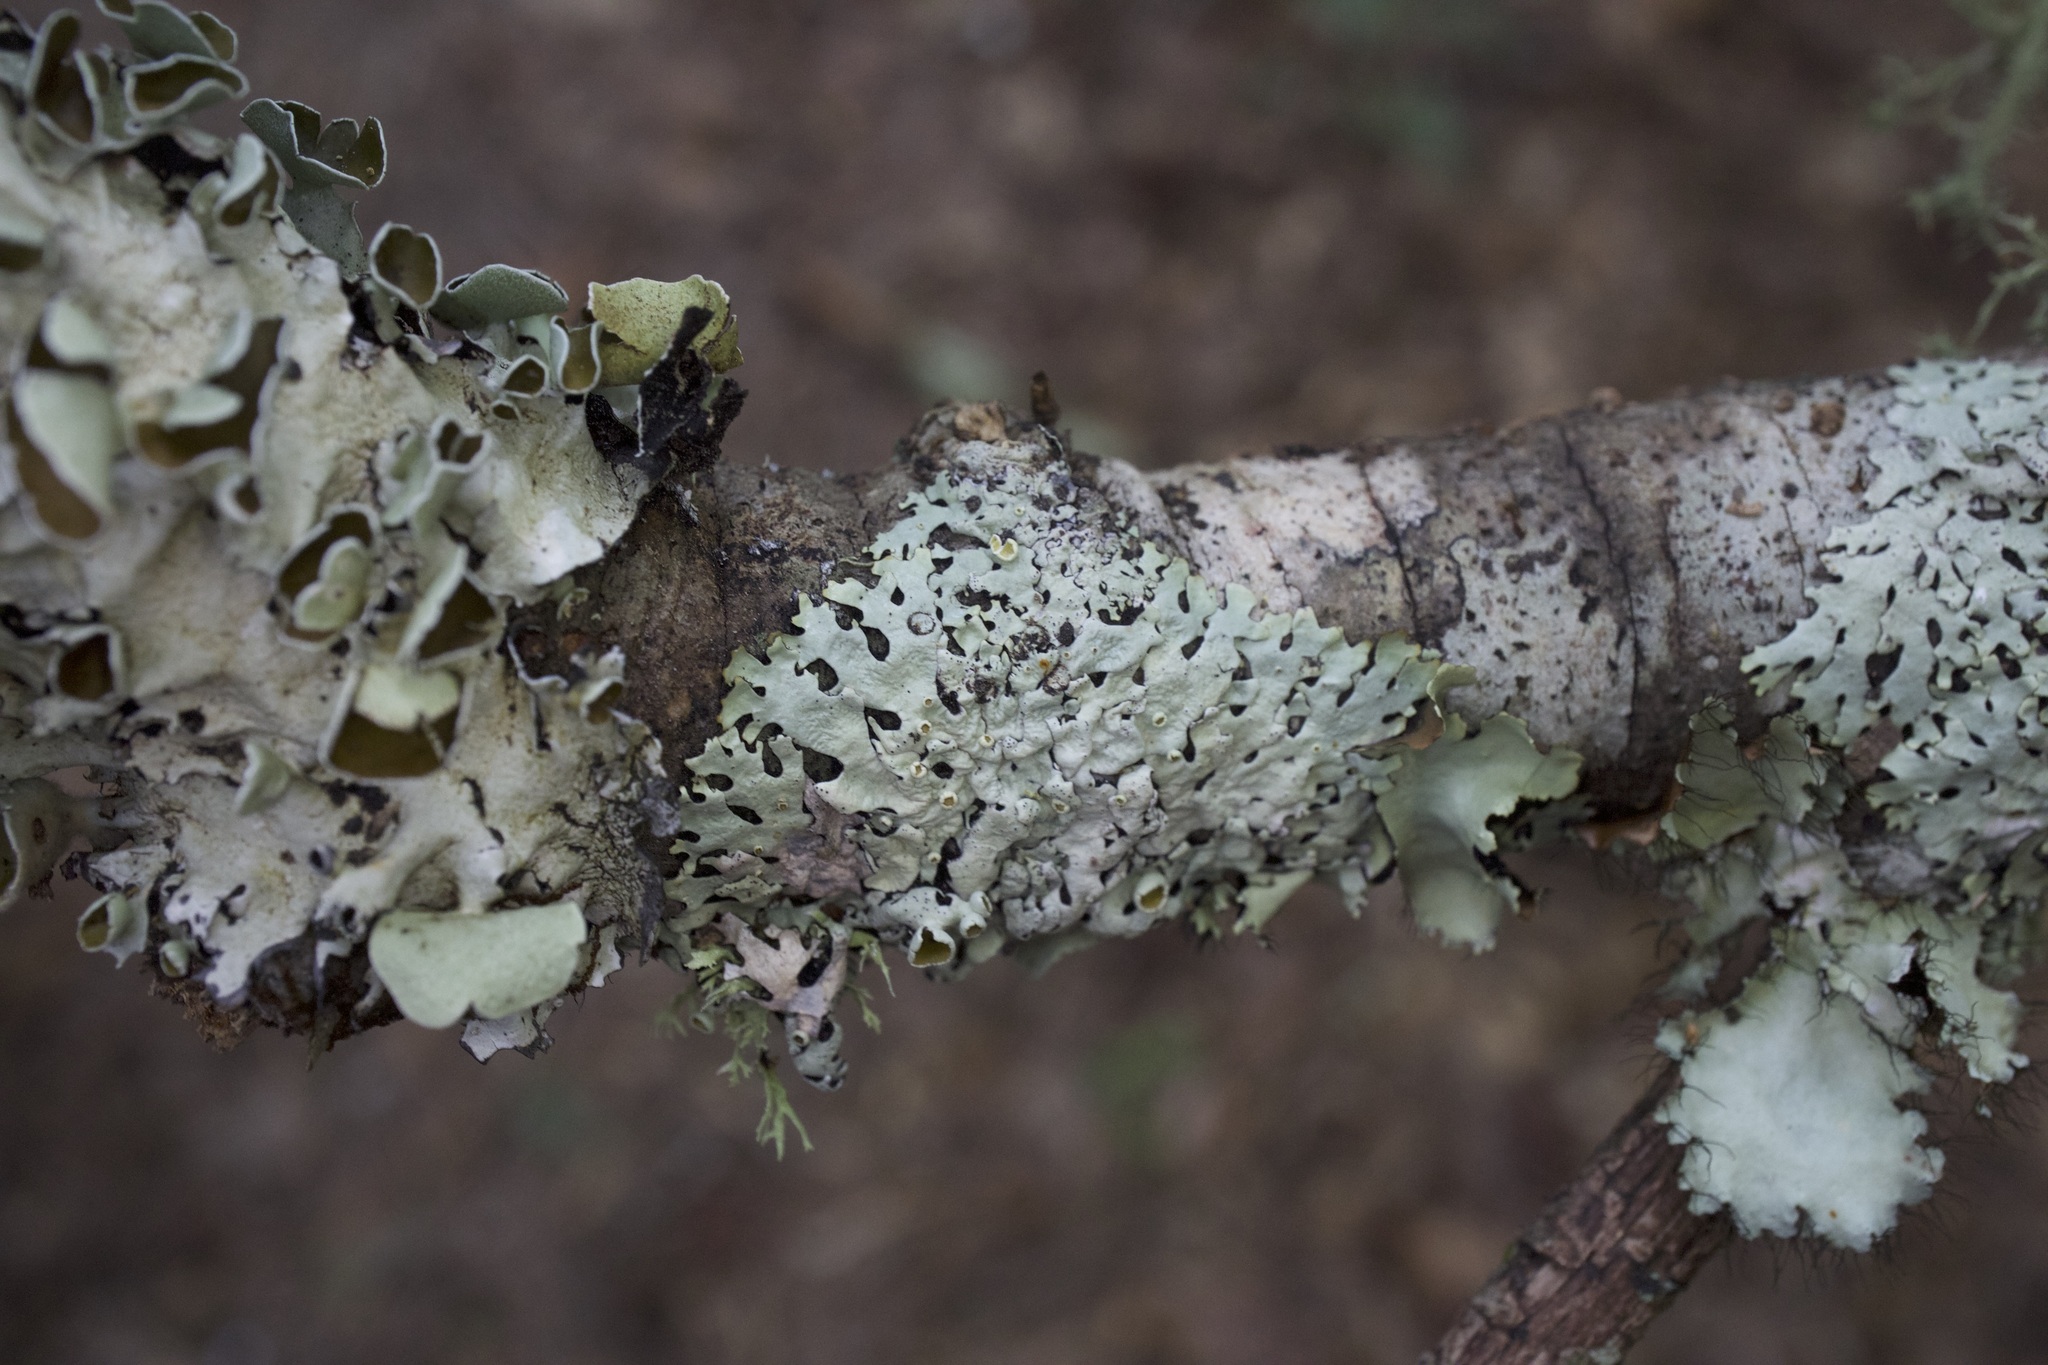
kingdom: Fungi
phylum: Ascomycota
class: Lecanoromycetes
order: Lecanorales
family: Parmeliaceae
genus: Hypotrachyna
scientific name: Hypotrachyna livida
